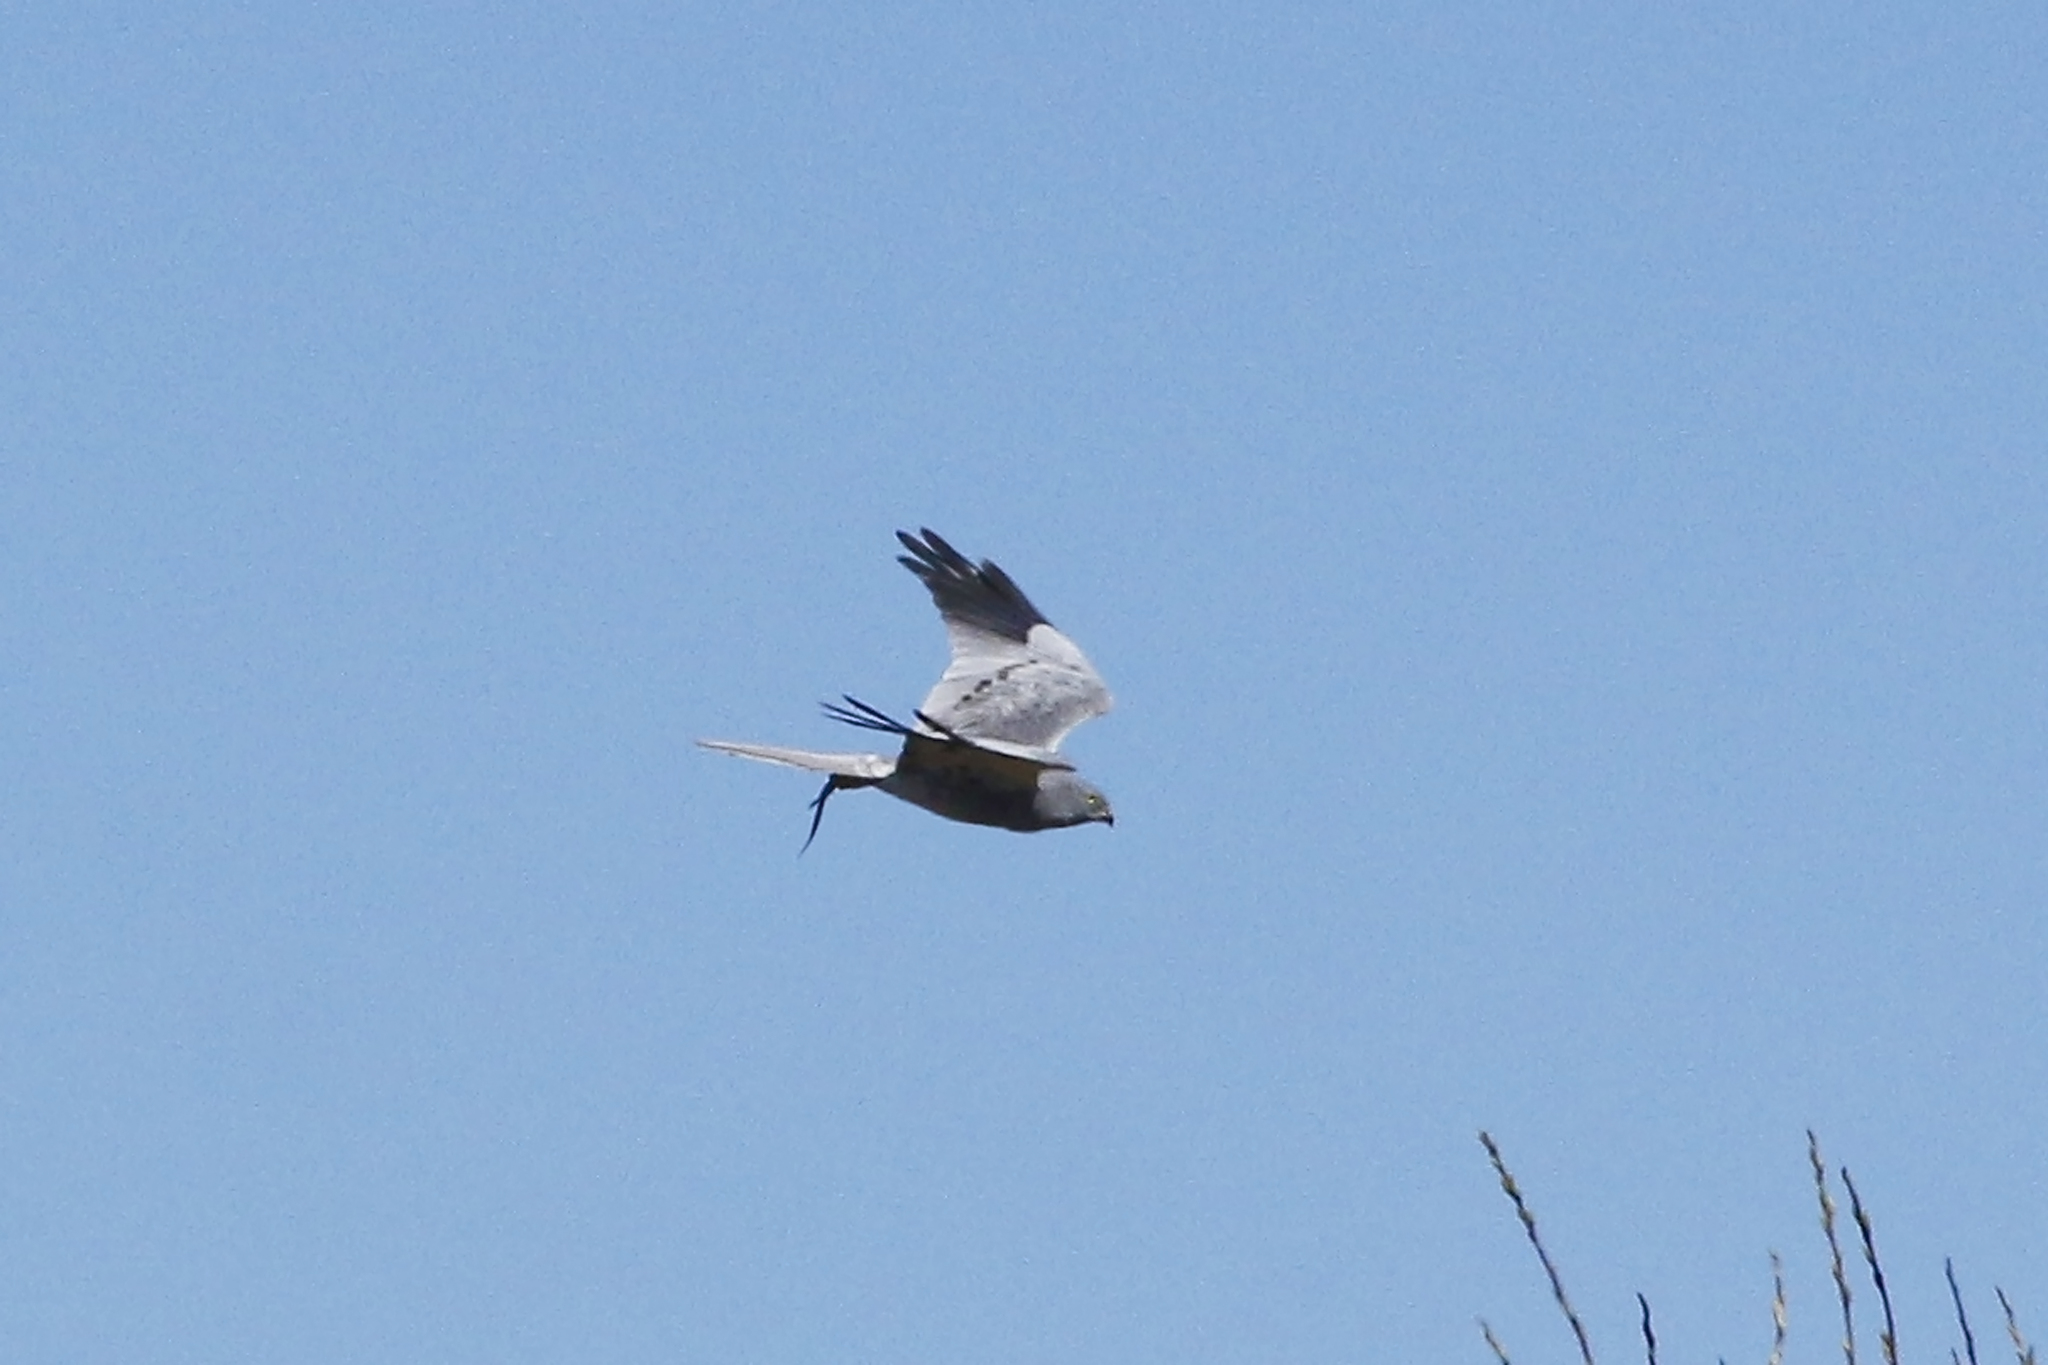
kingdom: Animalia
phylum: Chordata
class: Aves
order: Accipitriformes
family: Accipitridae
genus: Circus
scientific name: Circus pygargus
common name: Montagu's harrier
